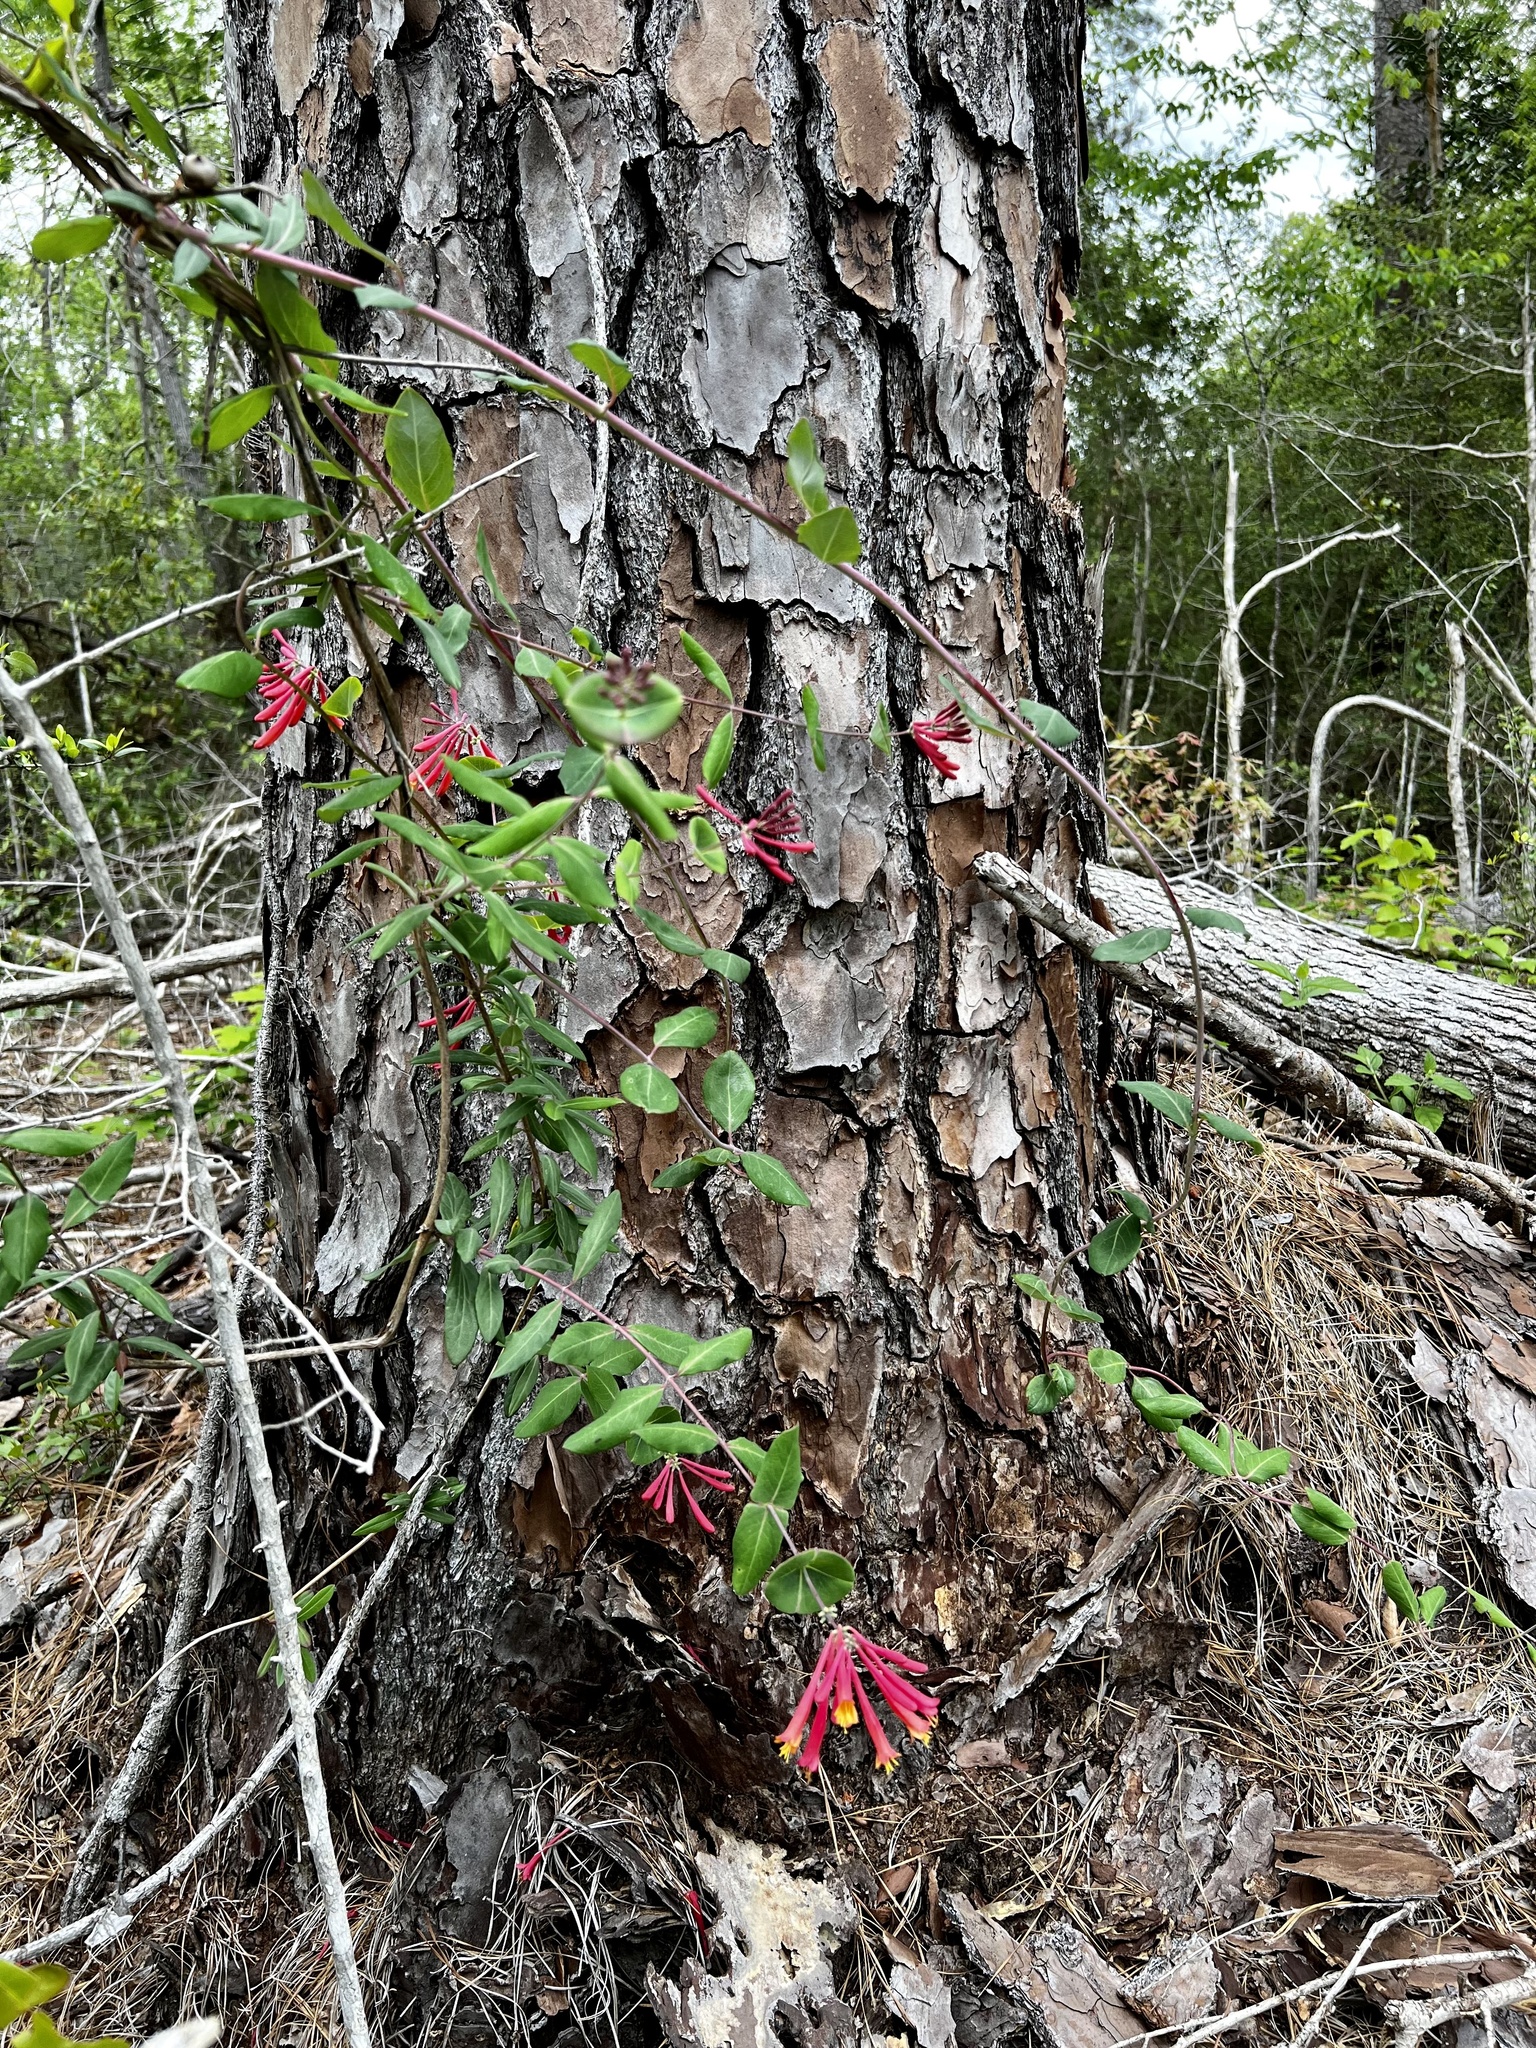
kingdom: Plantae
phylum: Tracheophyta
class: Magnoliopsida
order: Dipsacales
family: Caprifoliaceae
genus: Lonicera
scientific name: Lonicera sempervirens
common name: Coral honeysuckle
